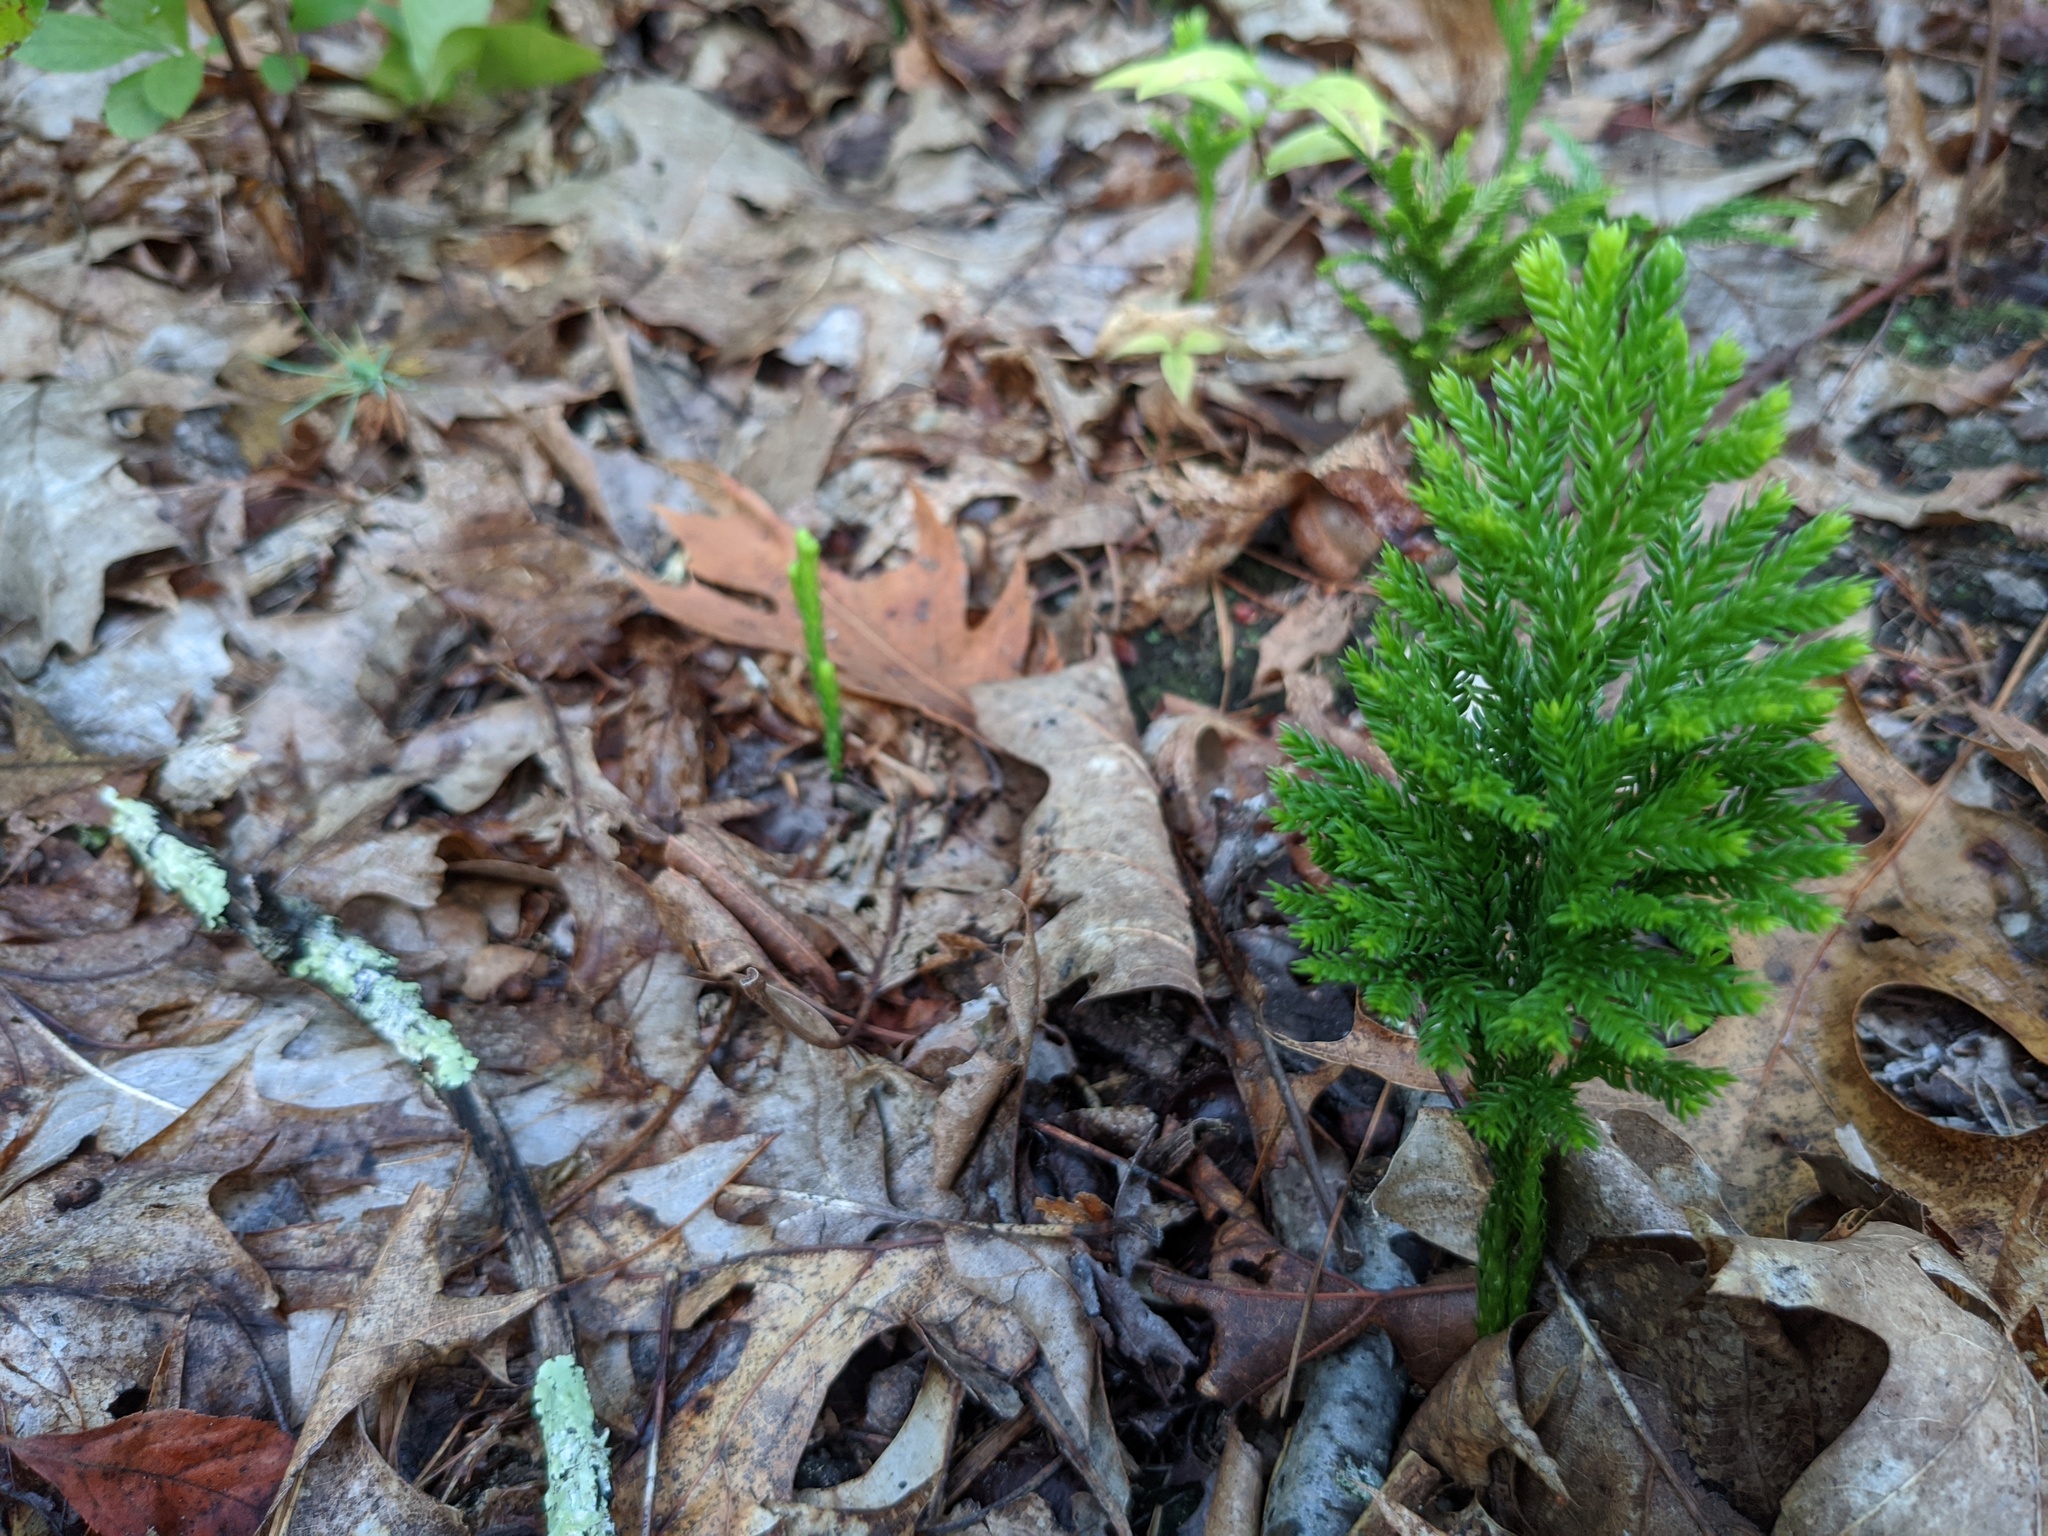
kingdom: Plantae
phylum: Tracheophyta
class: Lycopodiopsida
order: Lycopodiales
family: Lycopodiaceae
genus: Dendrolycopodium
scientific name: Dendrolycopodium obscurum
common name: Common ground-pine
